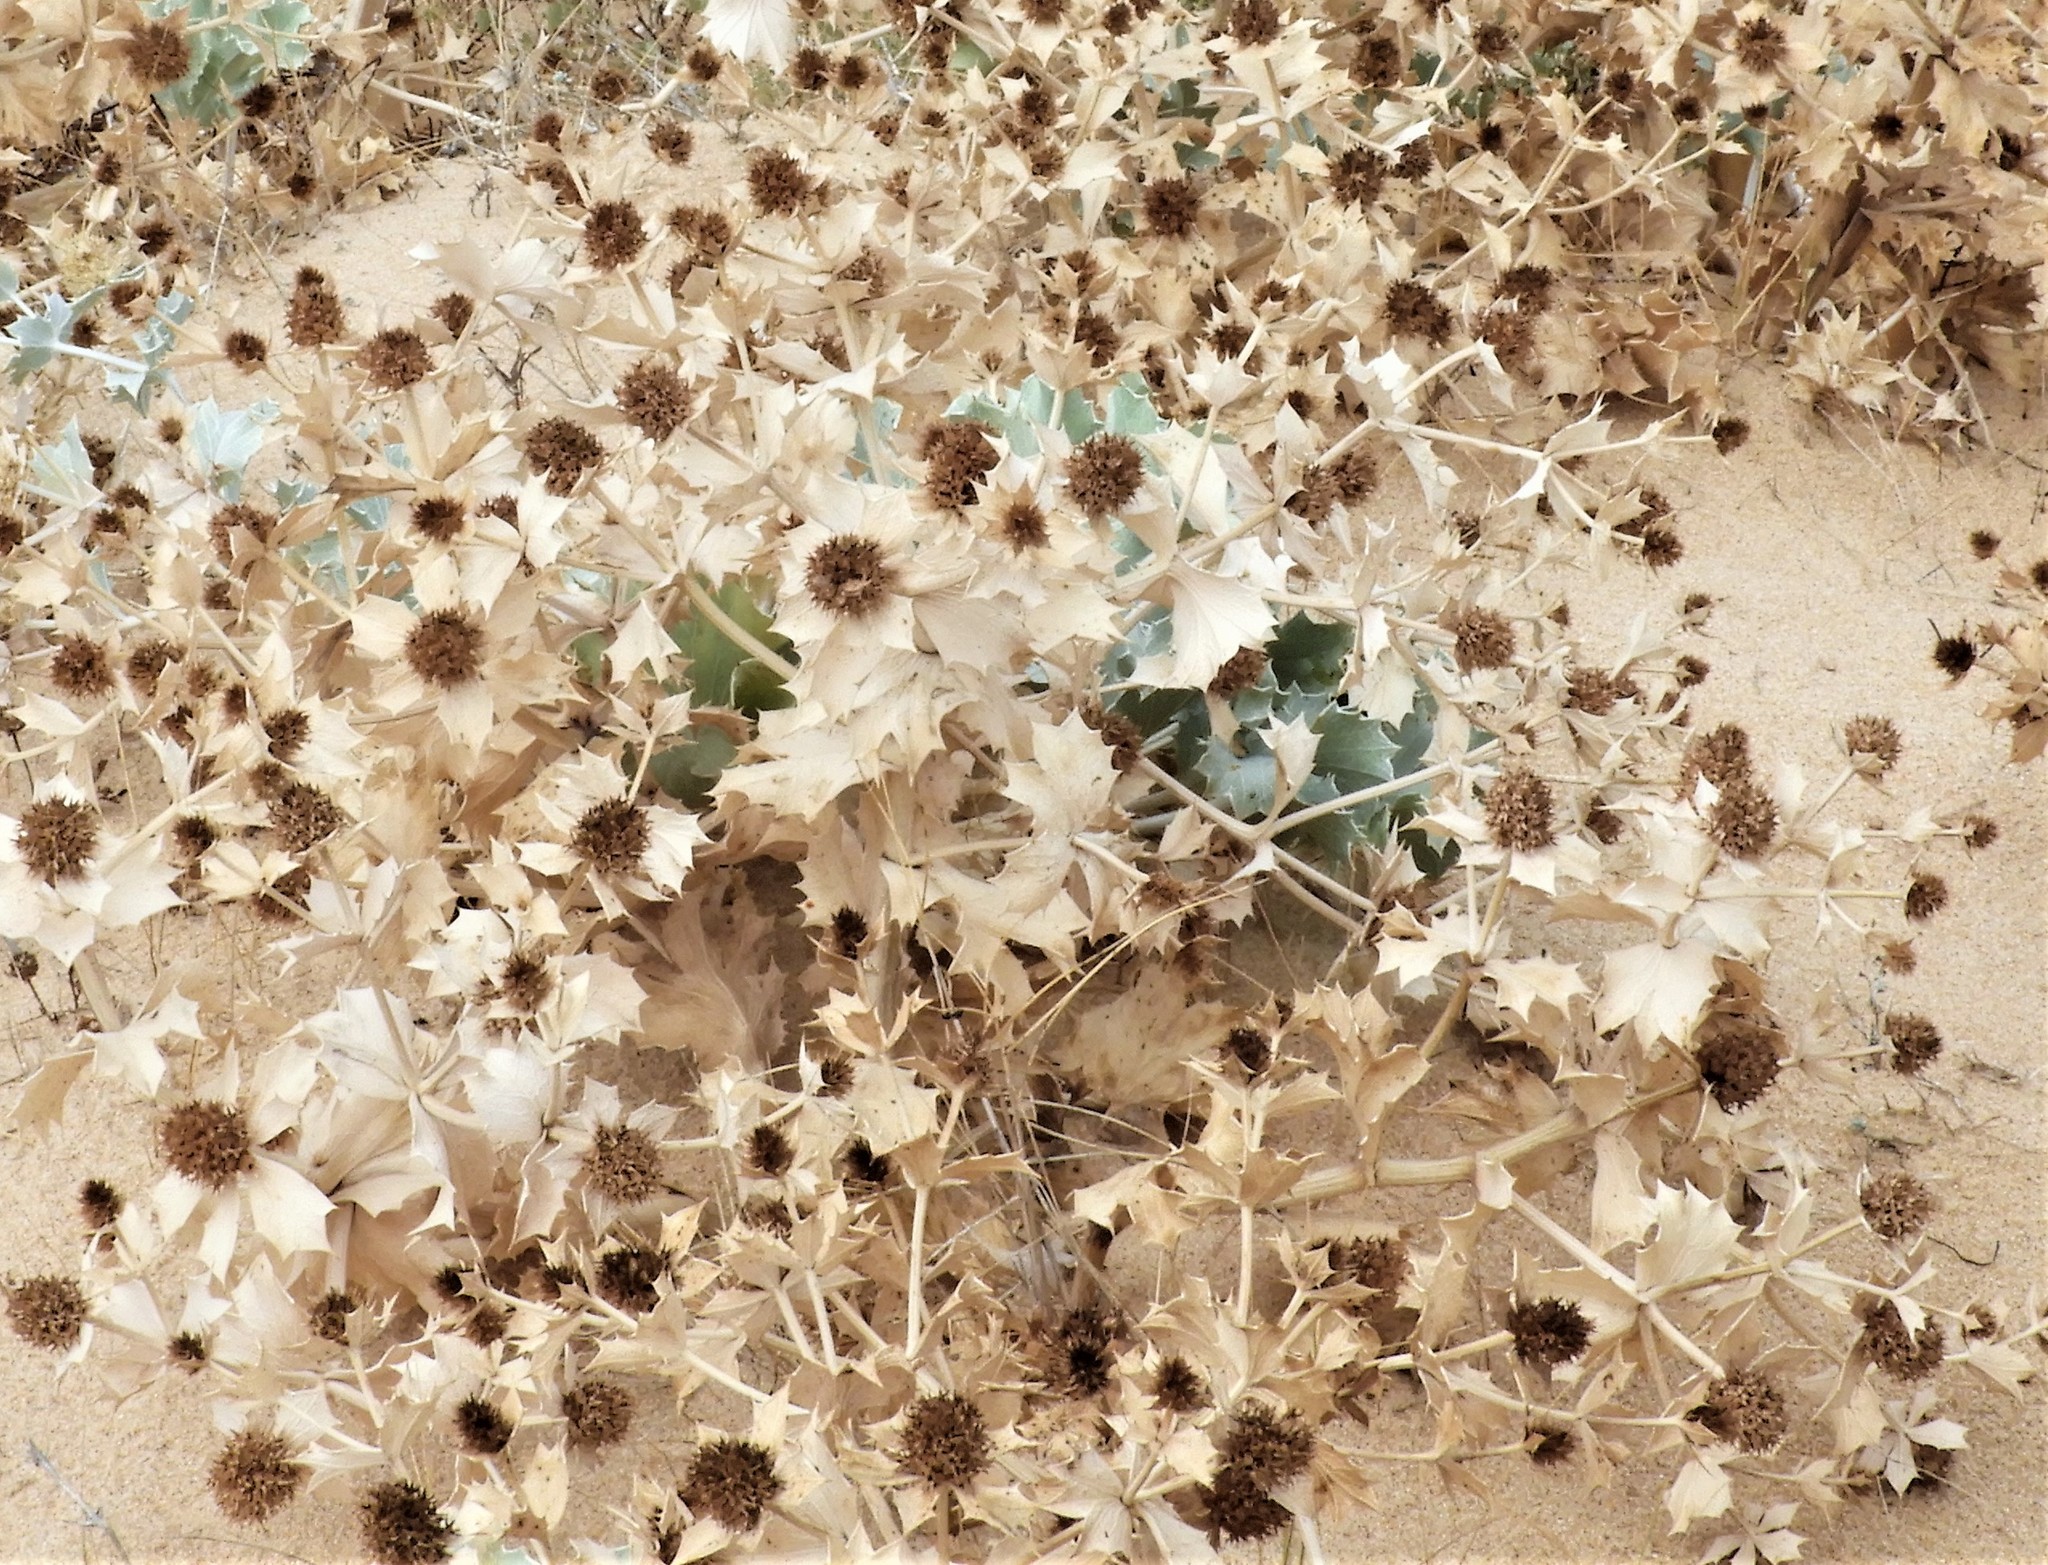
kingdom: Plantae
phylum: Tracheophyta
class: Magnoliopsida
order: Apiales
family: Apiaceae
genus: Eryngium
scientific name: Eryngium maritimum
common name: Sea-holly
